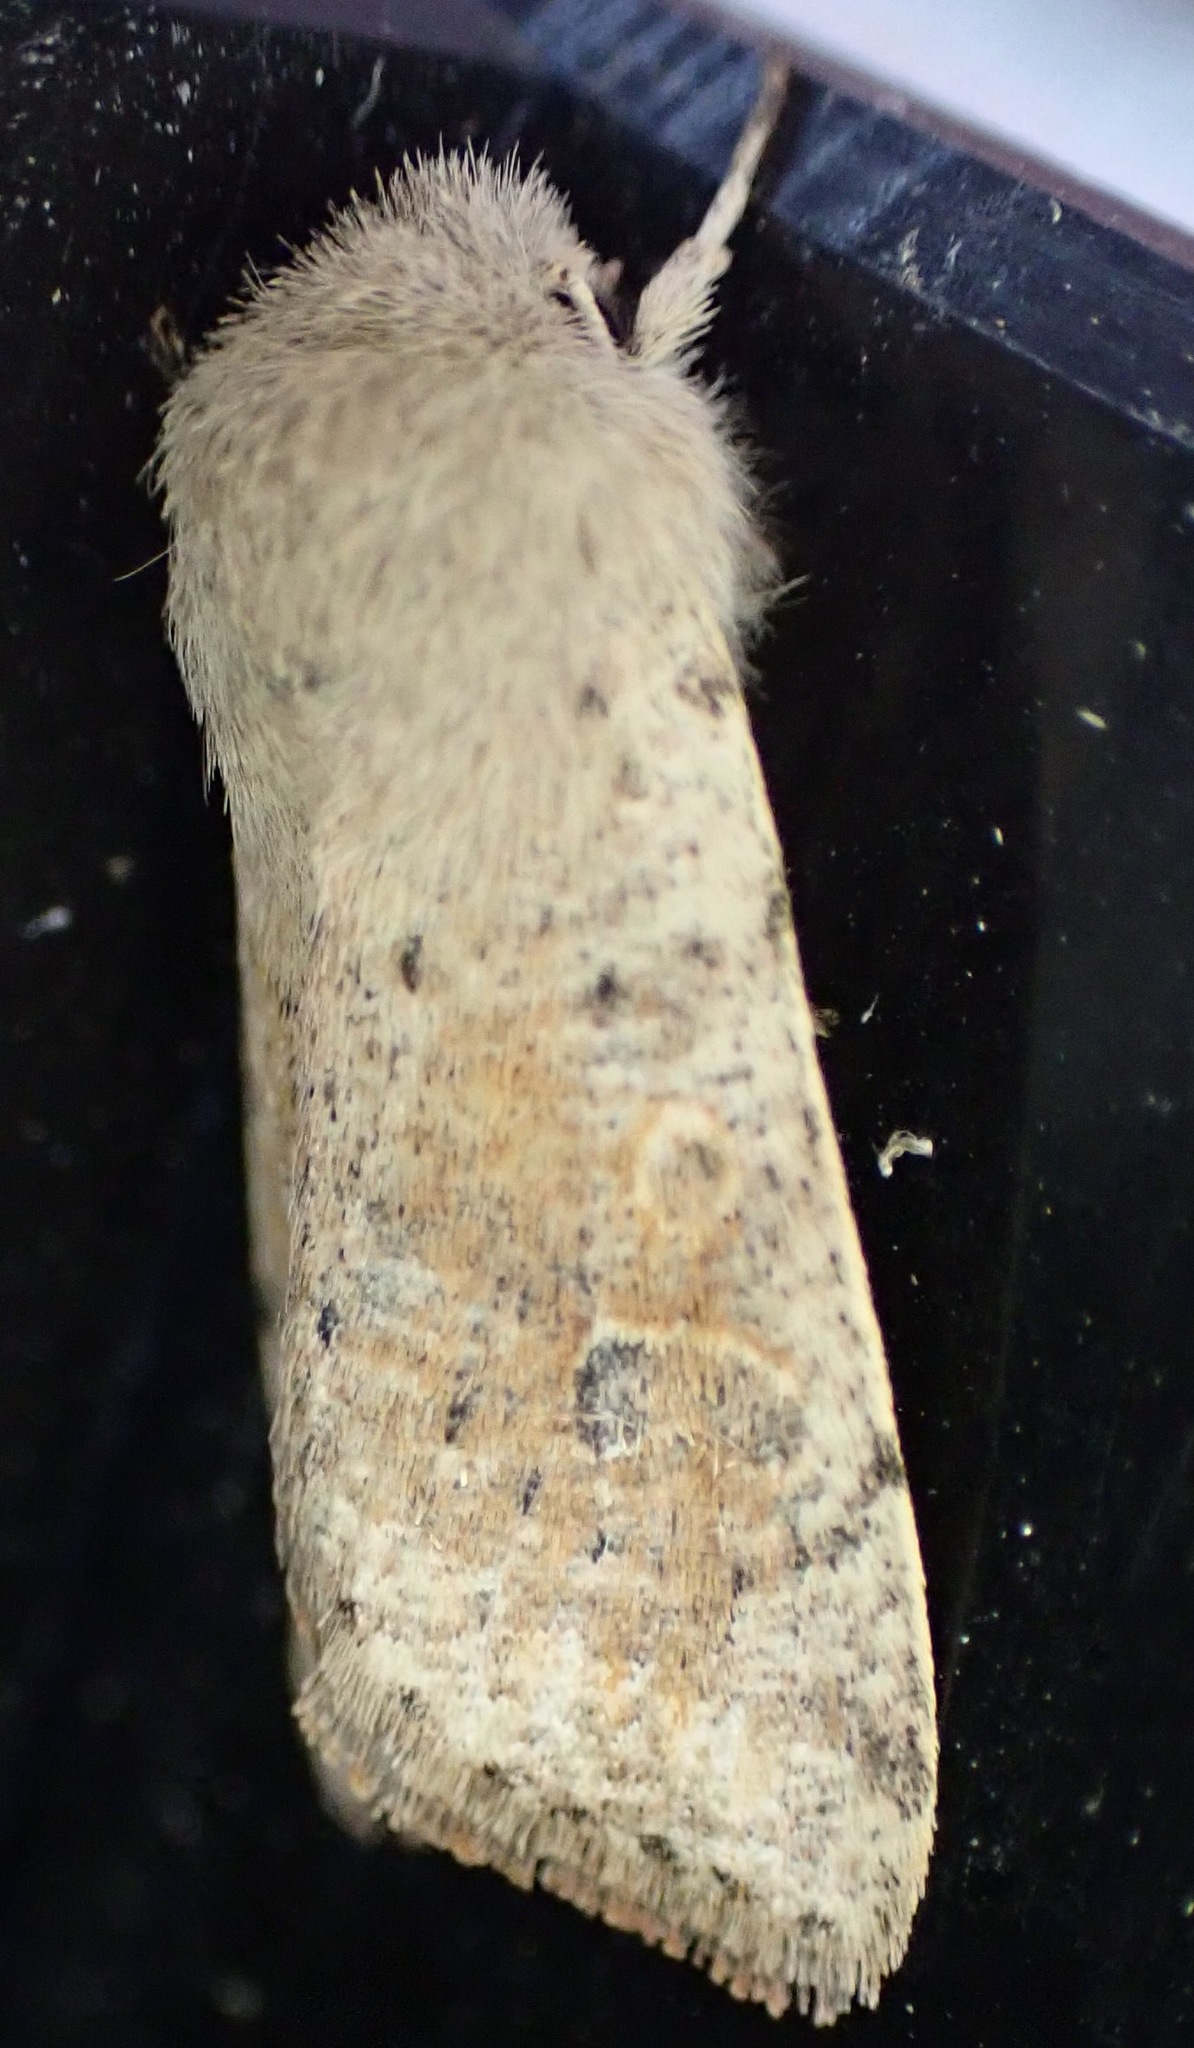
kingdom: Animalia
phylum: Arthropoda
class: Insecta
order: Lepidoptera
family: Noctuidae
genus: Orthosia
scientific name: Orthosia cruda
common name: Small quaker
